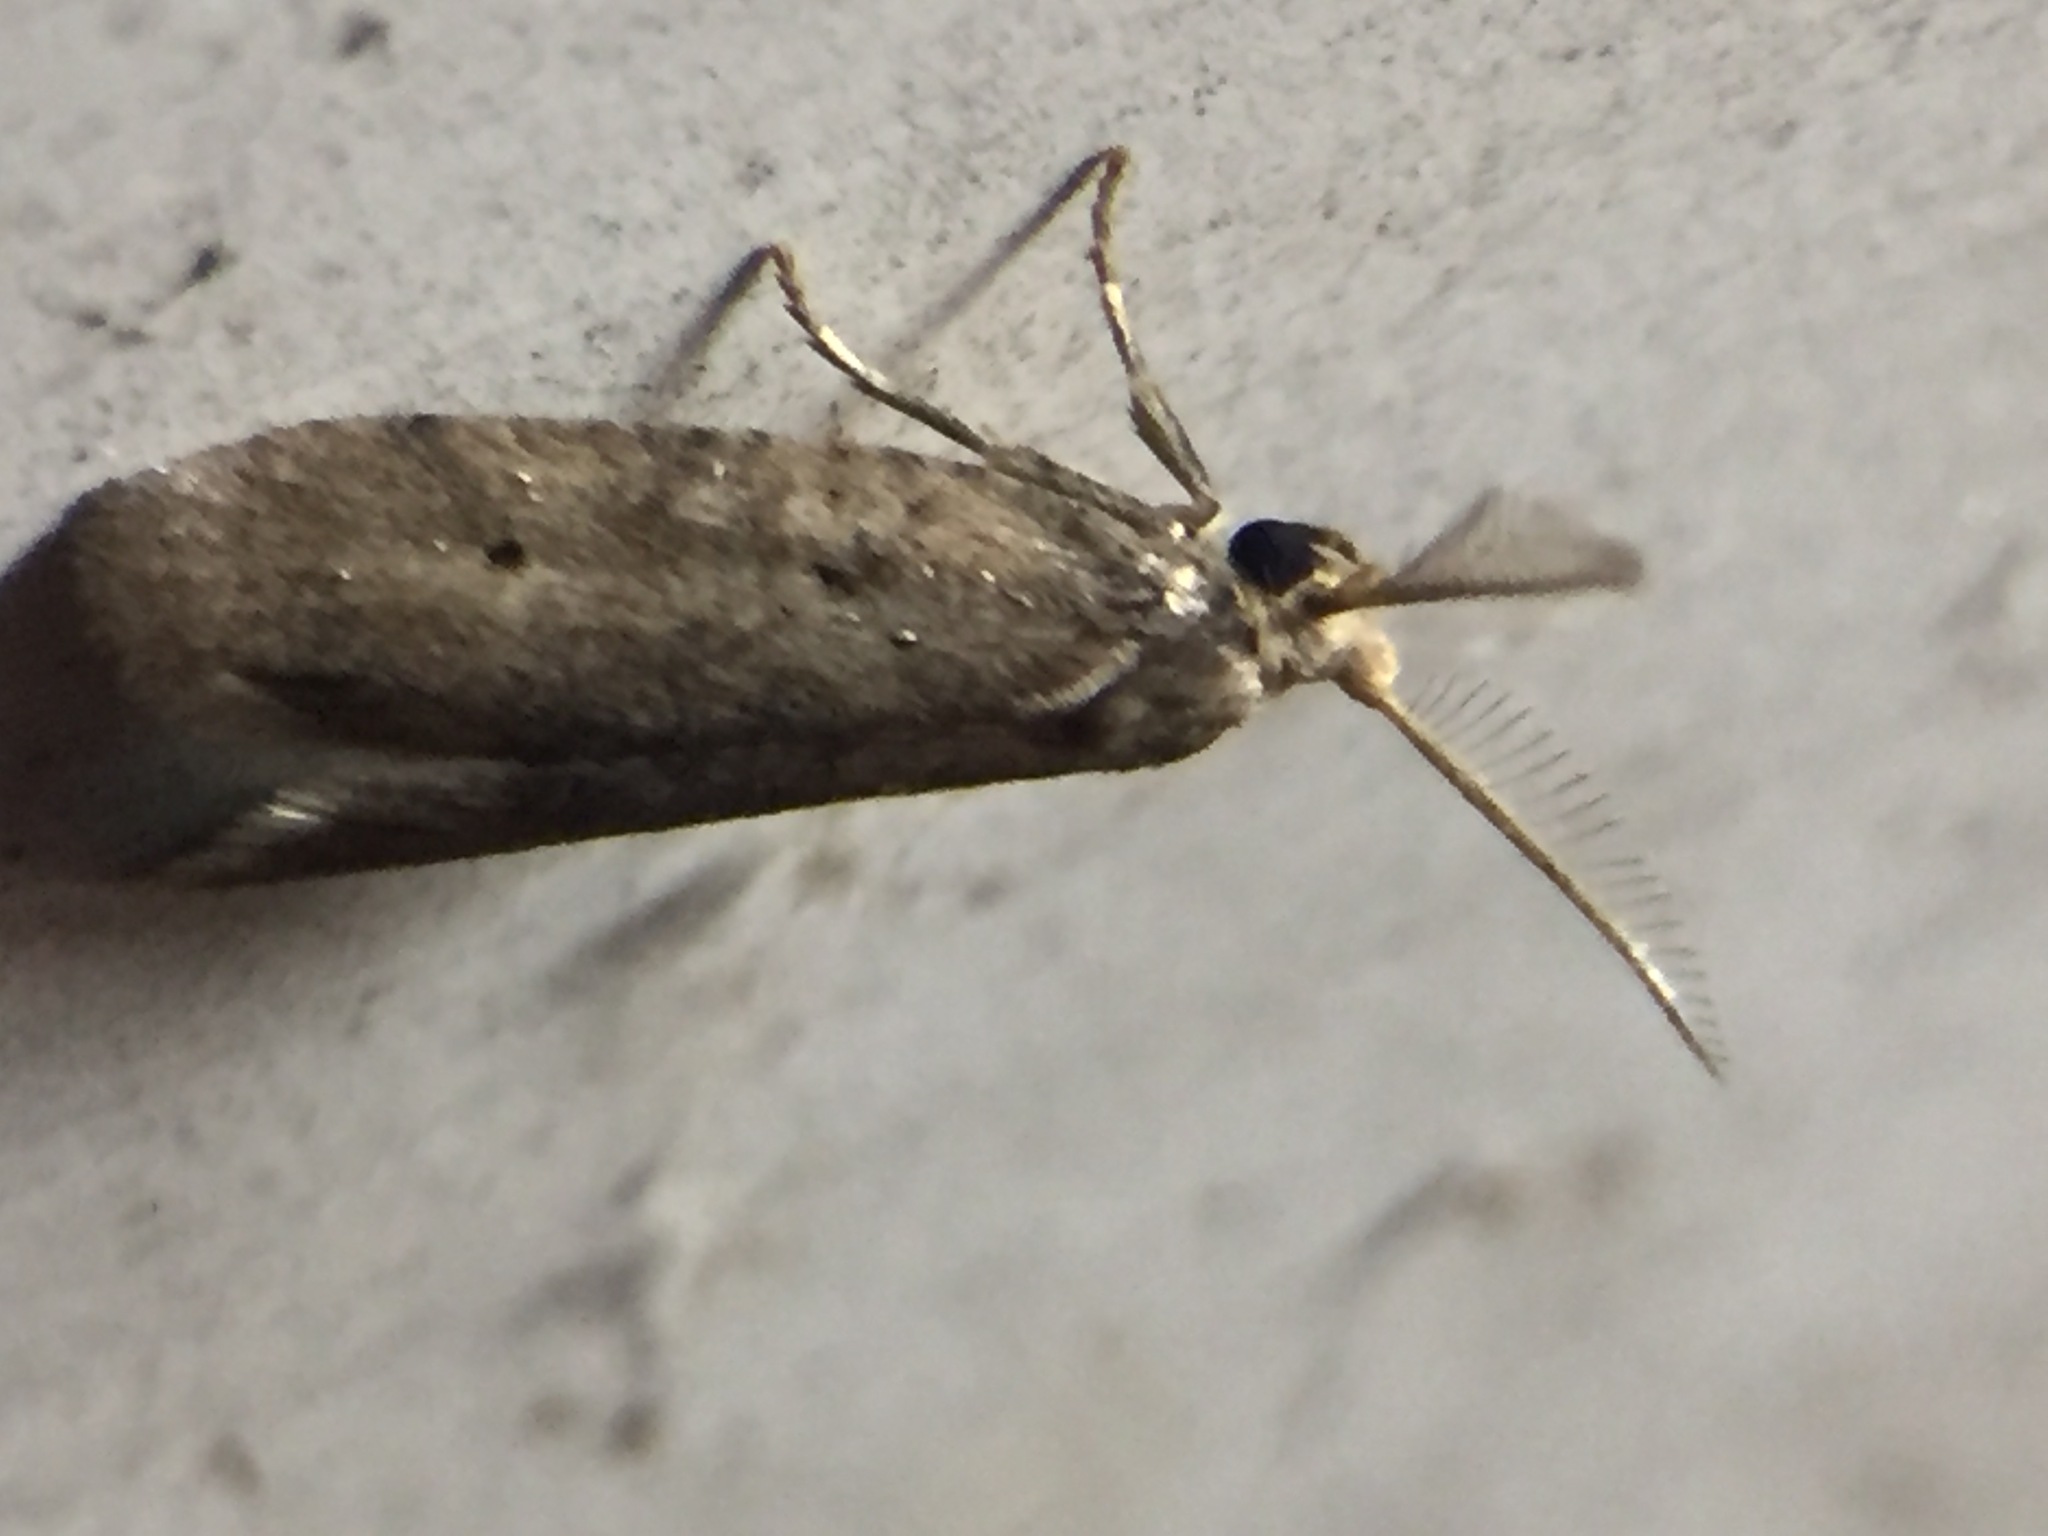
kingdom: Animalia
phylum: Arthropoda
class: Insecta
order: Lepidoptera
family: Galacticidae
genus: Tanaoctena
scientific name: Tanaoctena dubia
